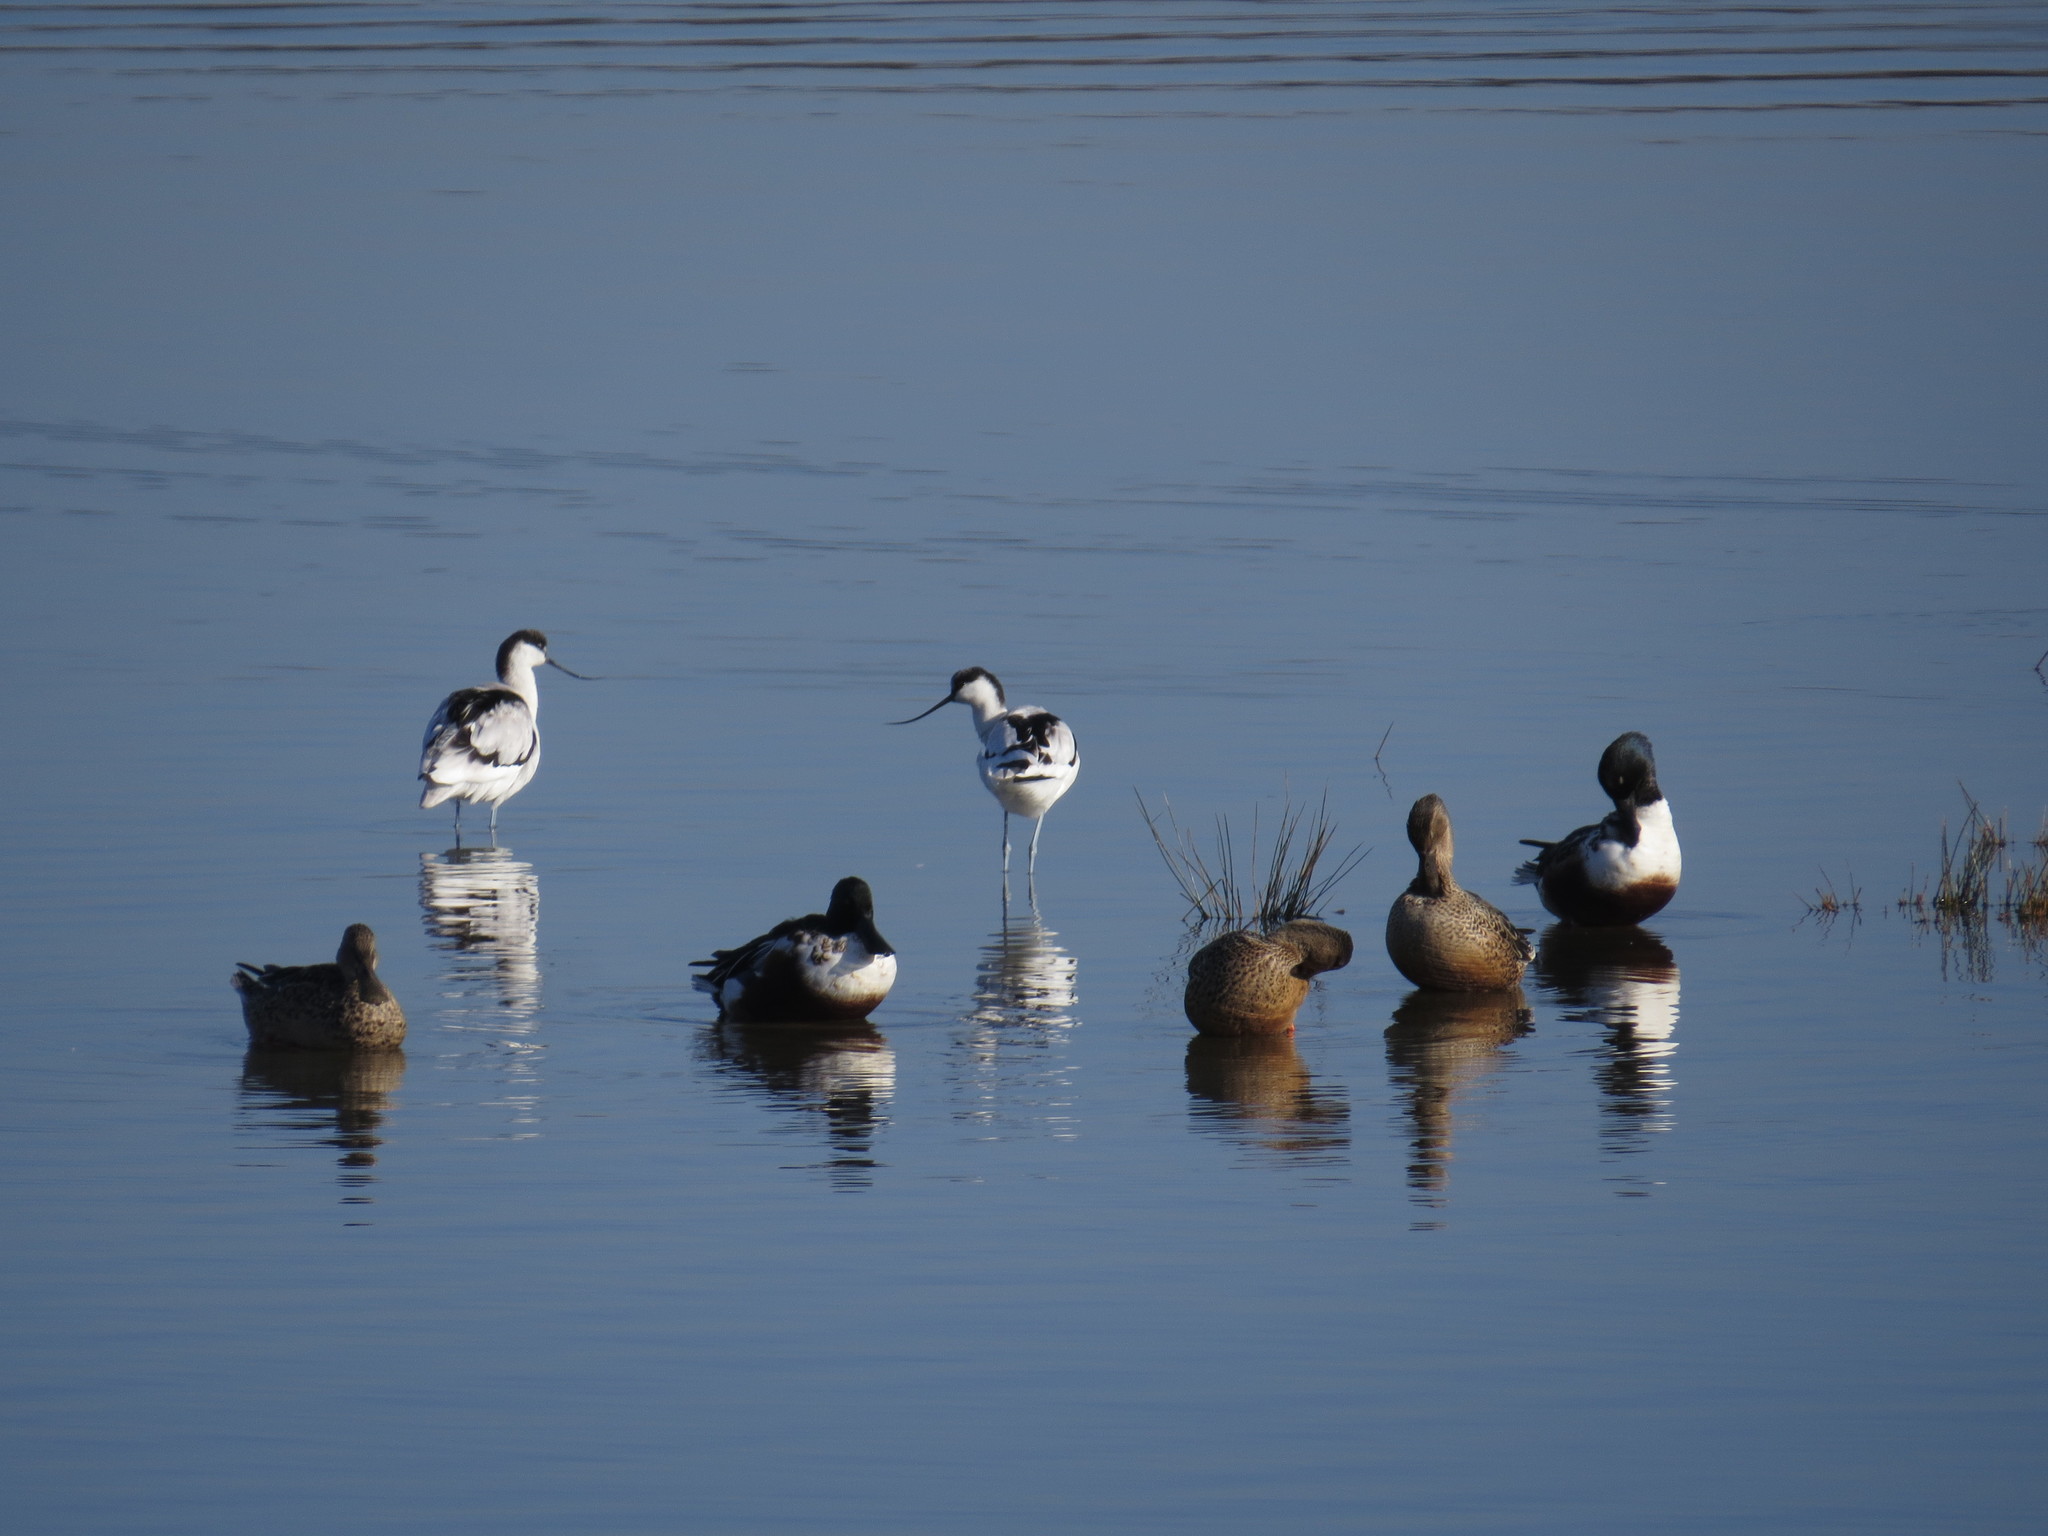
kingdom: Animalia
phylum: Chordata
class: Aves
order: Charadriiformes
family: Recurvirostridae
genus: Recurvirostra
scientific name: Recurvirostra avosetta
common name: Pied avocet
